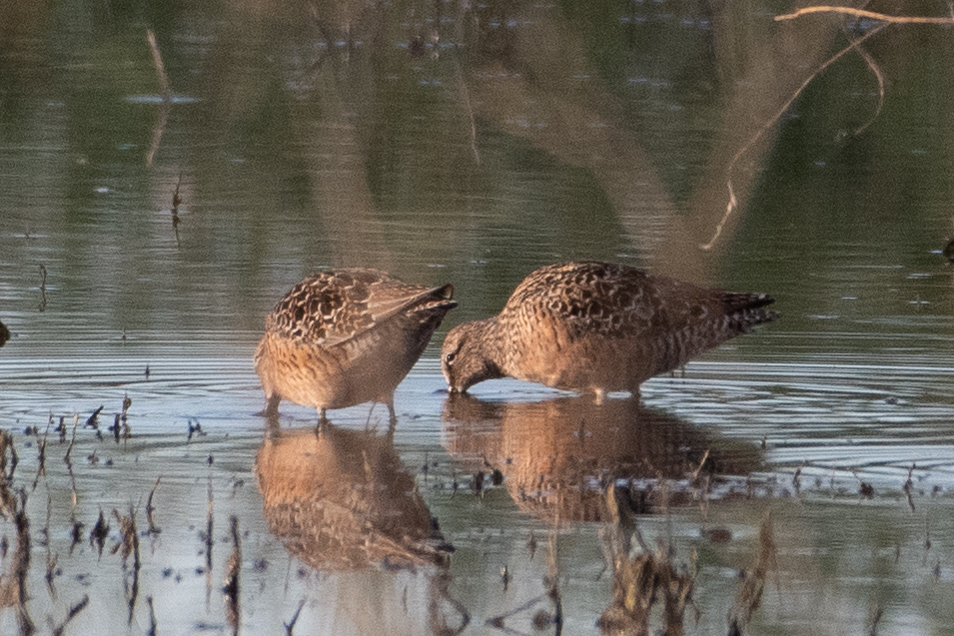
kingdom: Animalia
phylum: Chordata
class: Aves
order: Charadriiformes
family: Scolopacidae
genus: Limnodromus
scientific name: Limnodromus scolopaceus
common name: Long-billed dowitcher
